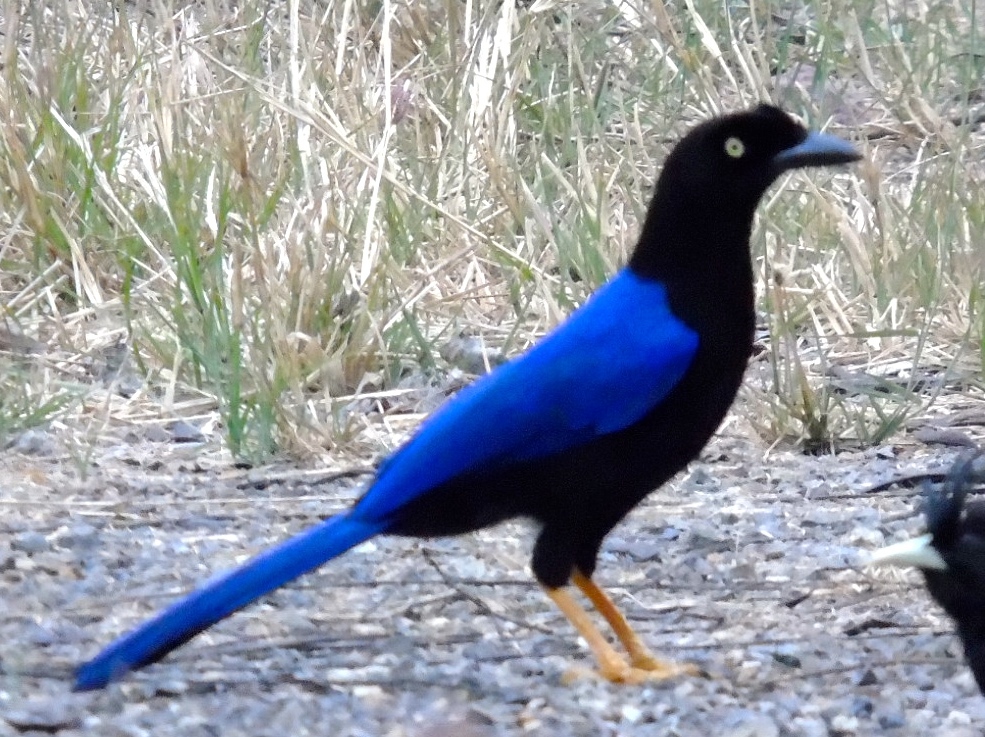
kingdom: Animalia
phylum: Chordata
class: Aves
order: Passeriformes
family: Corvidae
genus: Cyanocorax
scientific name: Cyanocorax beecheii
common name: Purplish-backed jay
